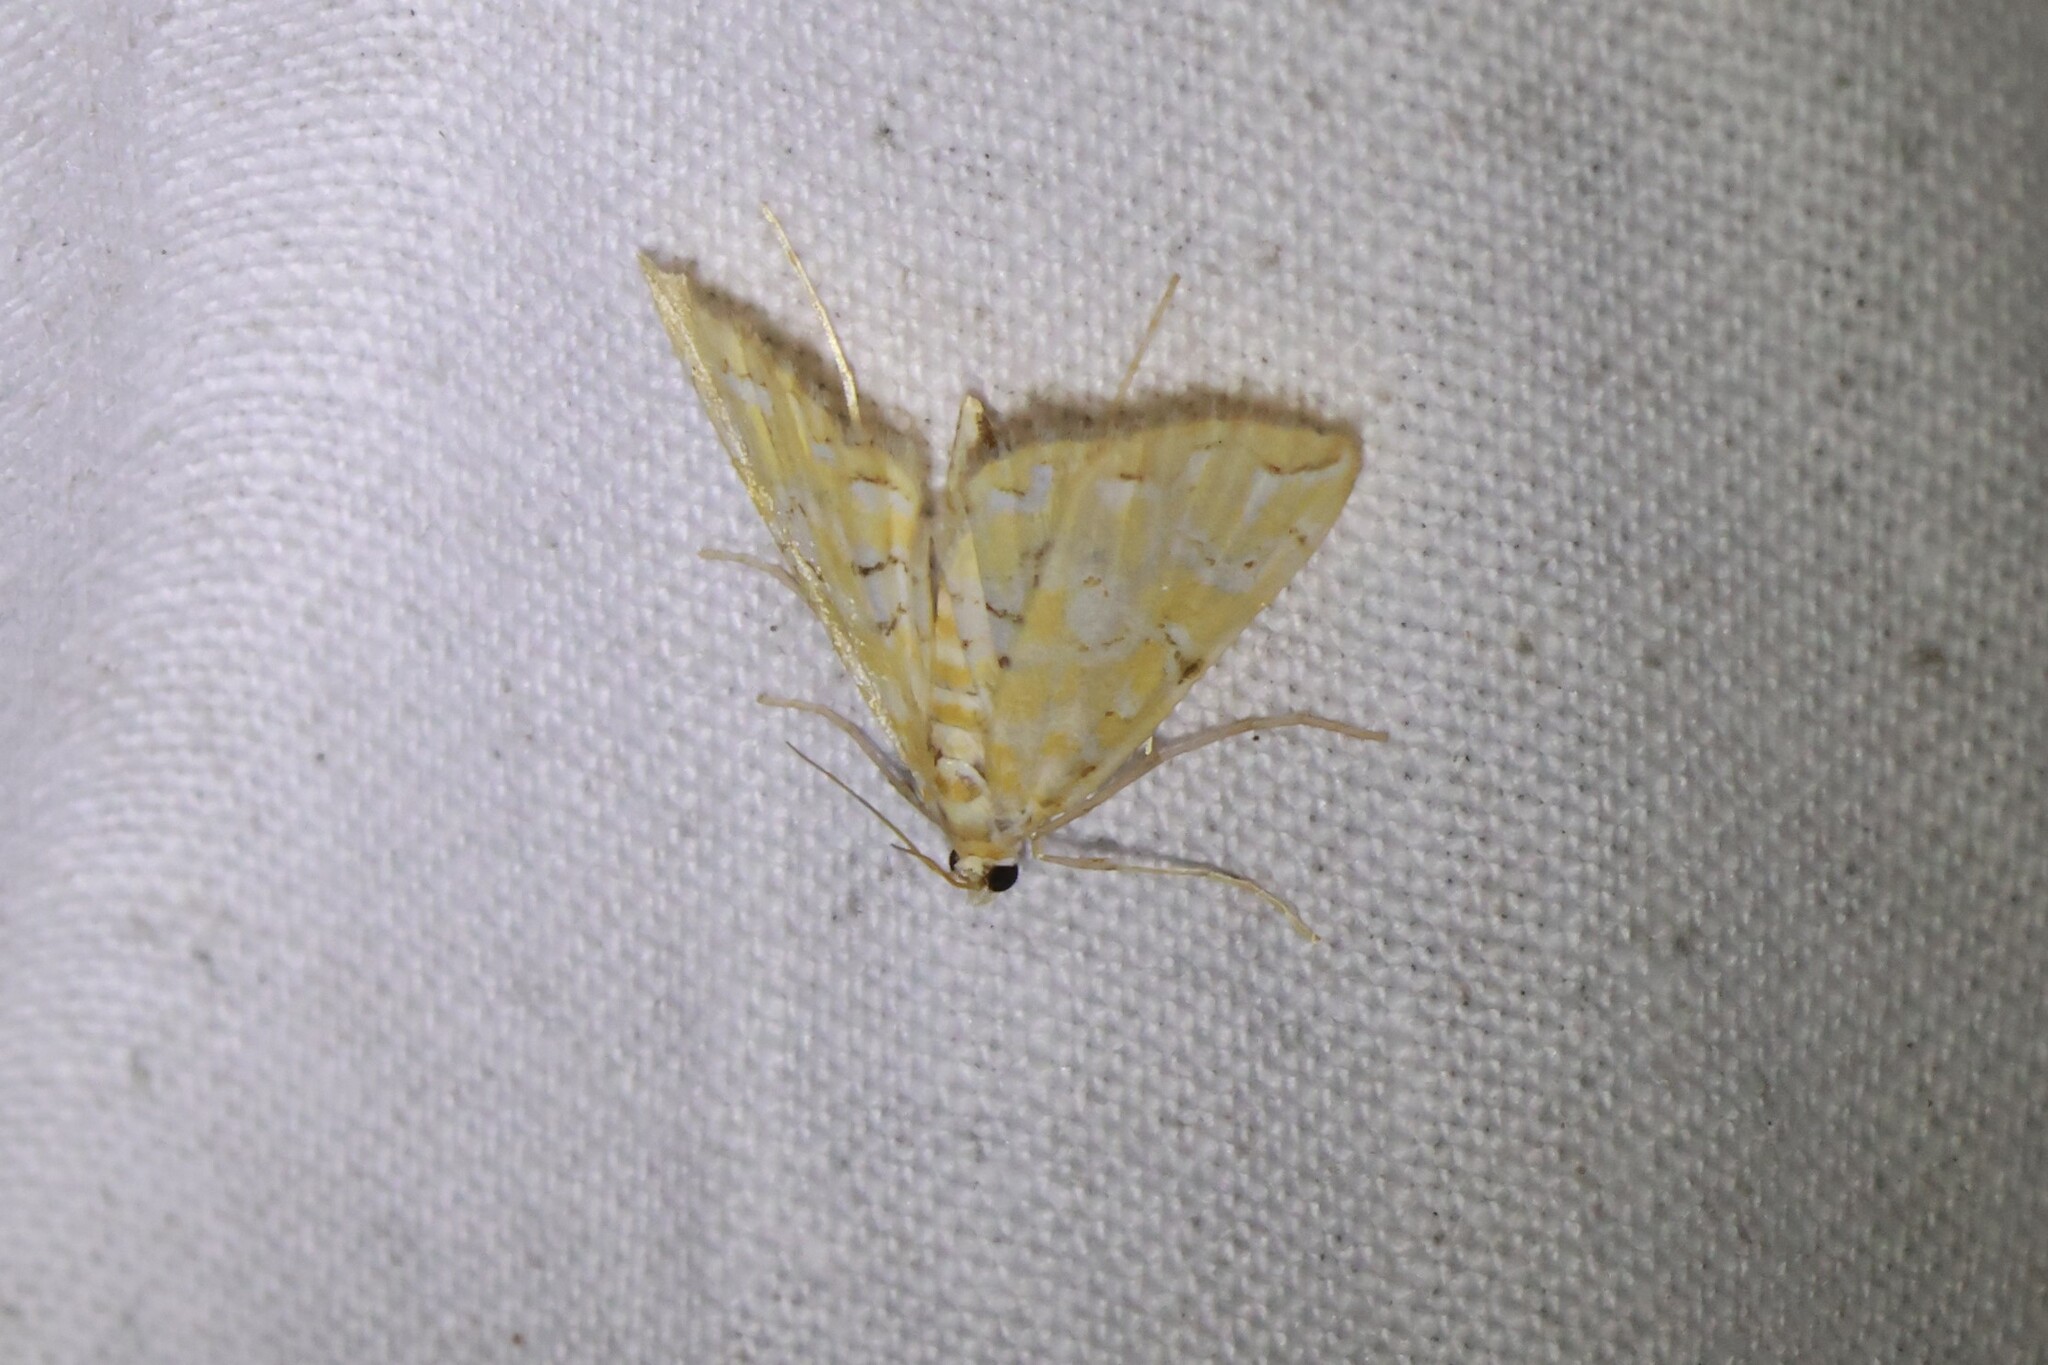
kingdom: Animalia
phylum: Arthropoda
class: Insecta
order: Lepidoptera
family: Crambidae
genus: Elophila
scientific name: Elophila icciusalis
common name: Pondside pyralid moth
